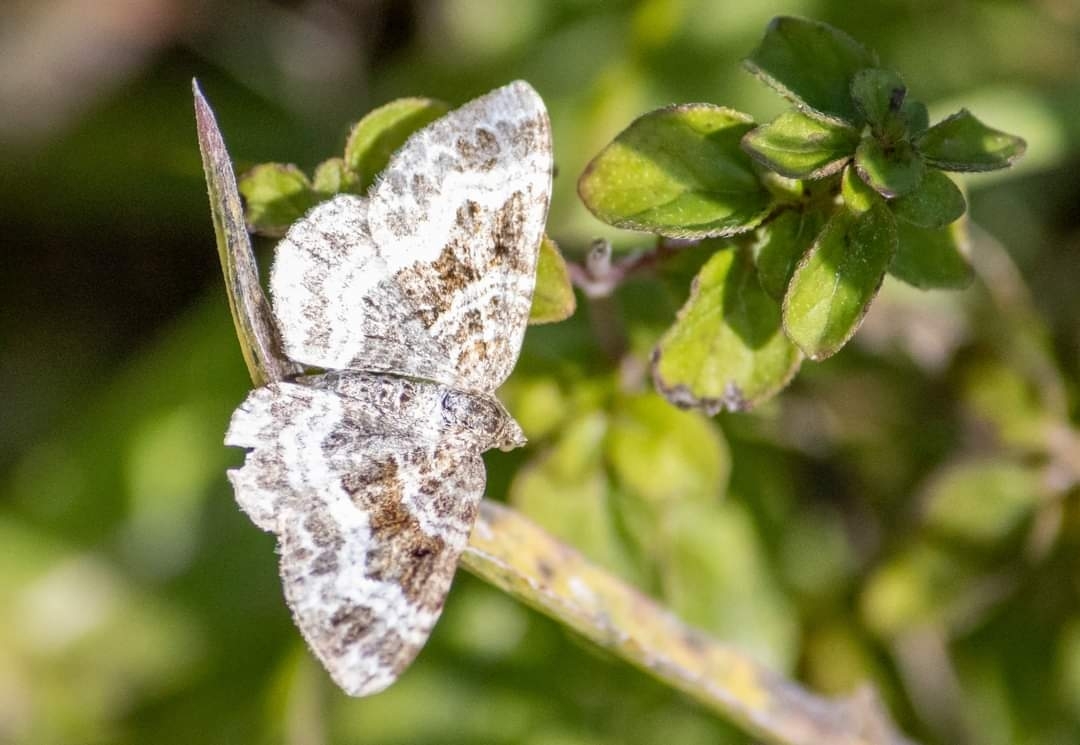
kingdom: Animalia
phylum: Arthropoda
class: Insecta
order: Lepidoptera
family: Geometridae
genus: Epirrhoe
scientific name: Epirrhoe alternata
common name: Common carpet
